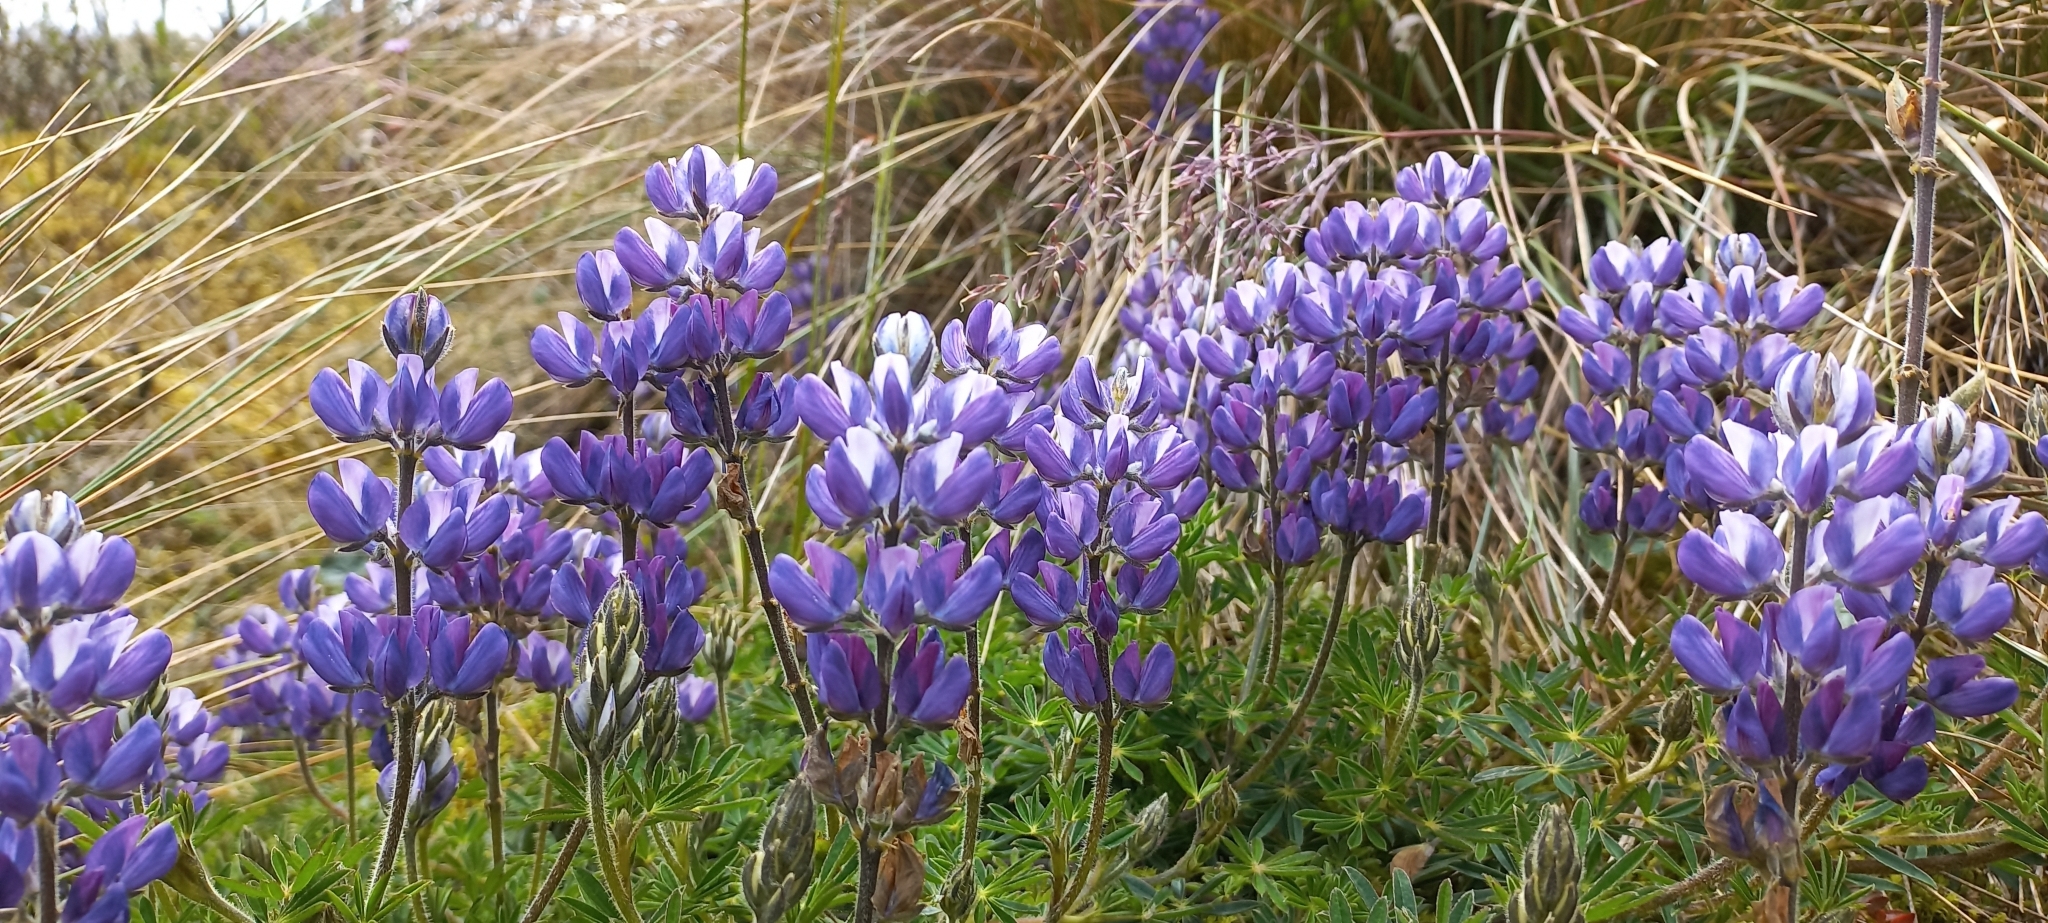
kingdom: Plantae
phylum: Tracheophyta
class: Magnoliopsida
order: Fabales
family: Fabaceae
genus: Lupinus
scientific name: Lupinus guascensis
